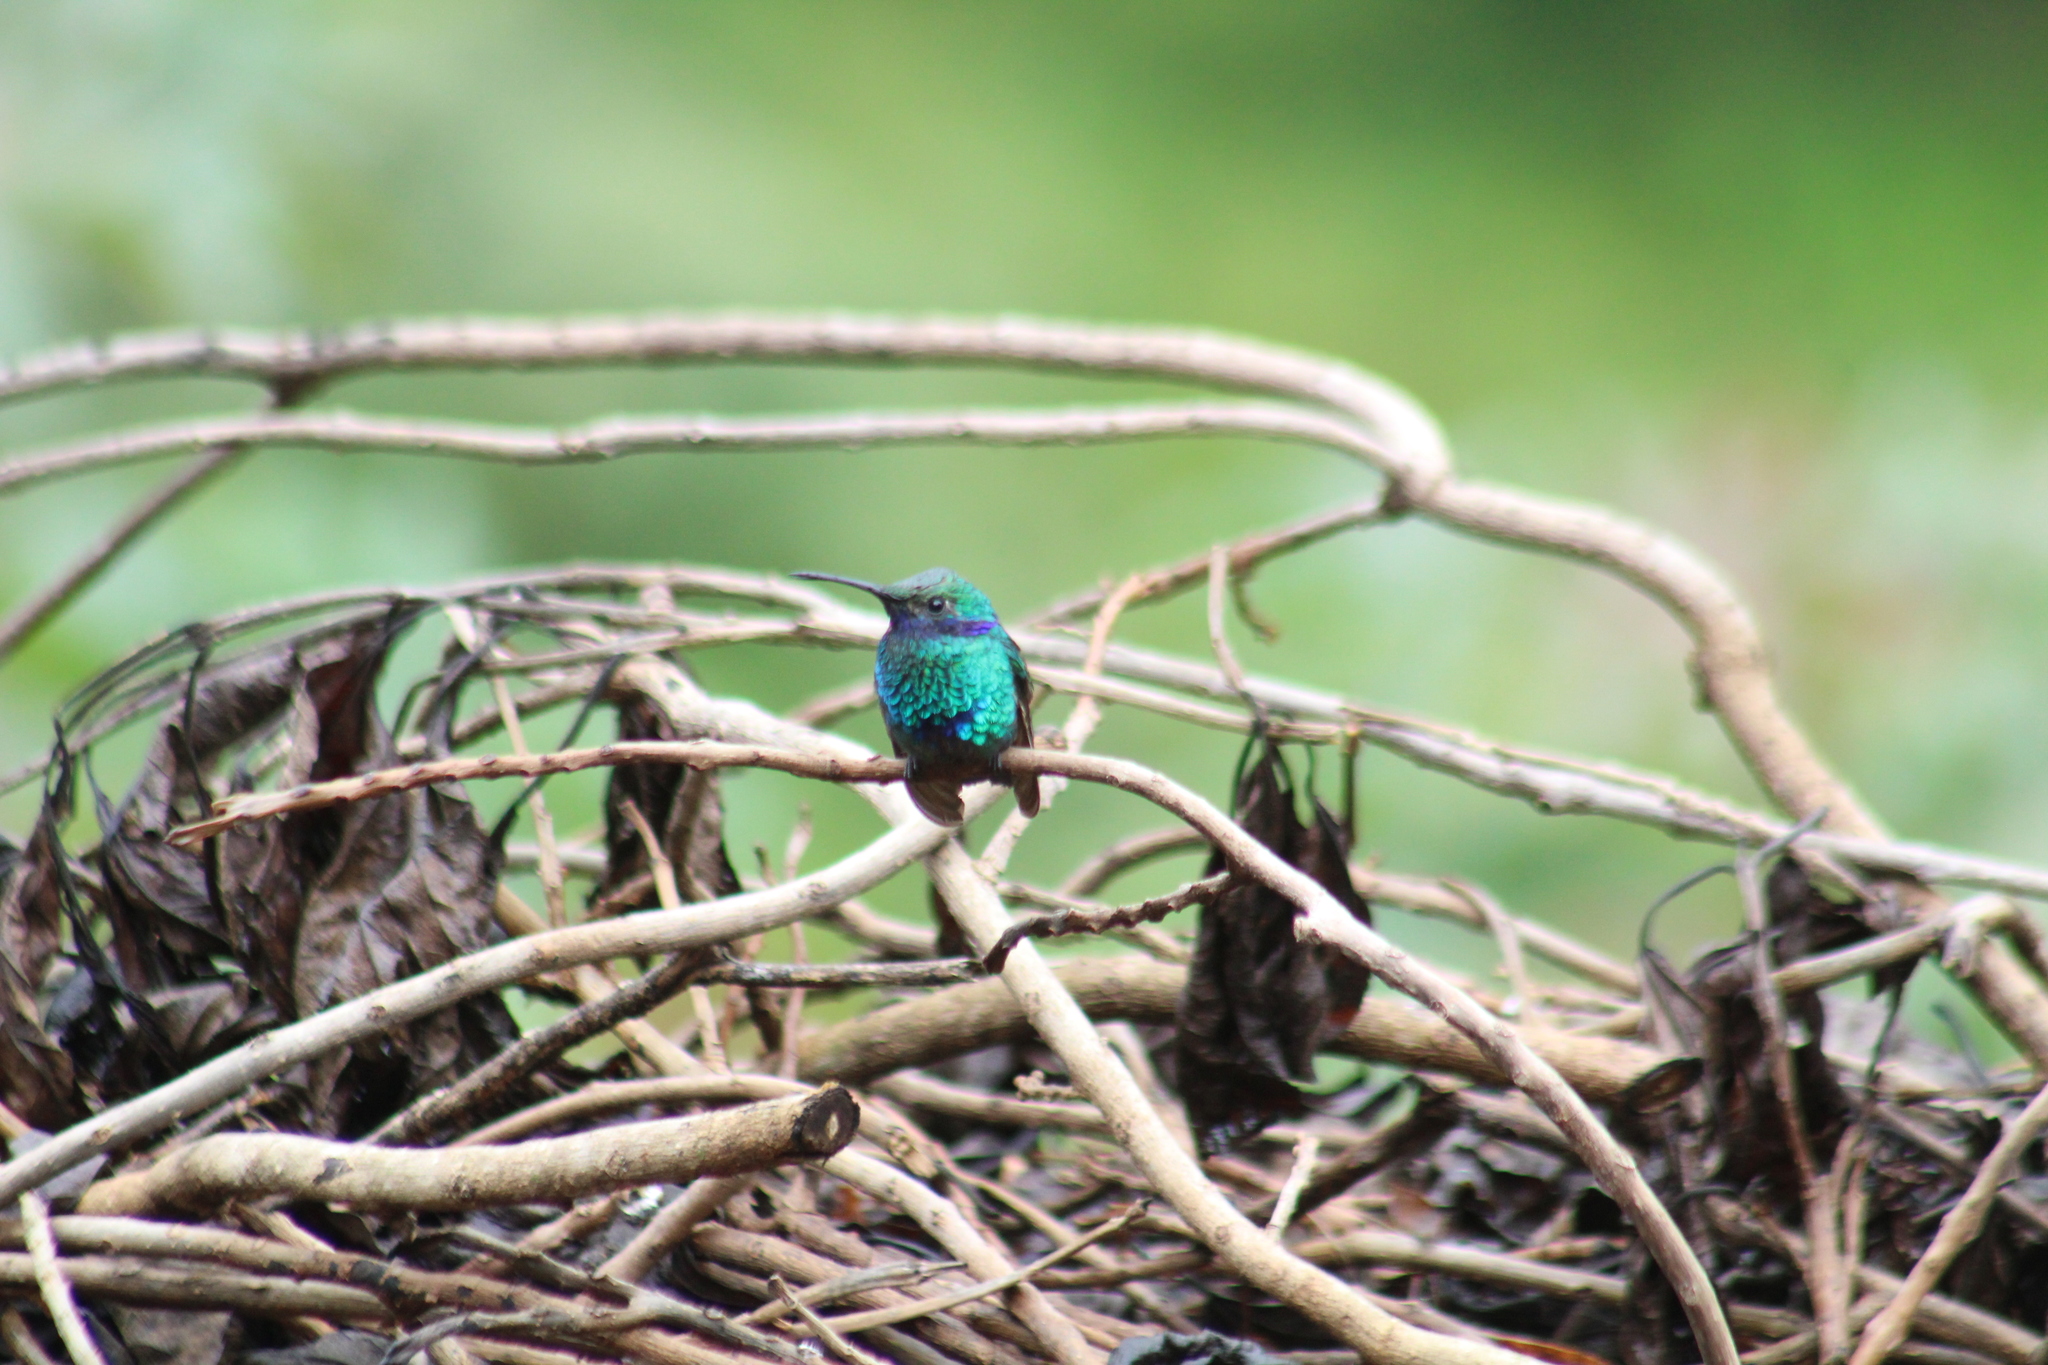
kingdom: Animalia
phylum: Chordata
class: Aves
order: Apodiformes
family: Trochilidae
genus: Colibri
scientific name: Colibri coruscans
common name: Sparkling violetear
